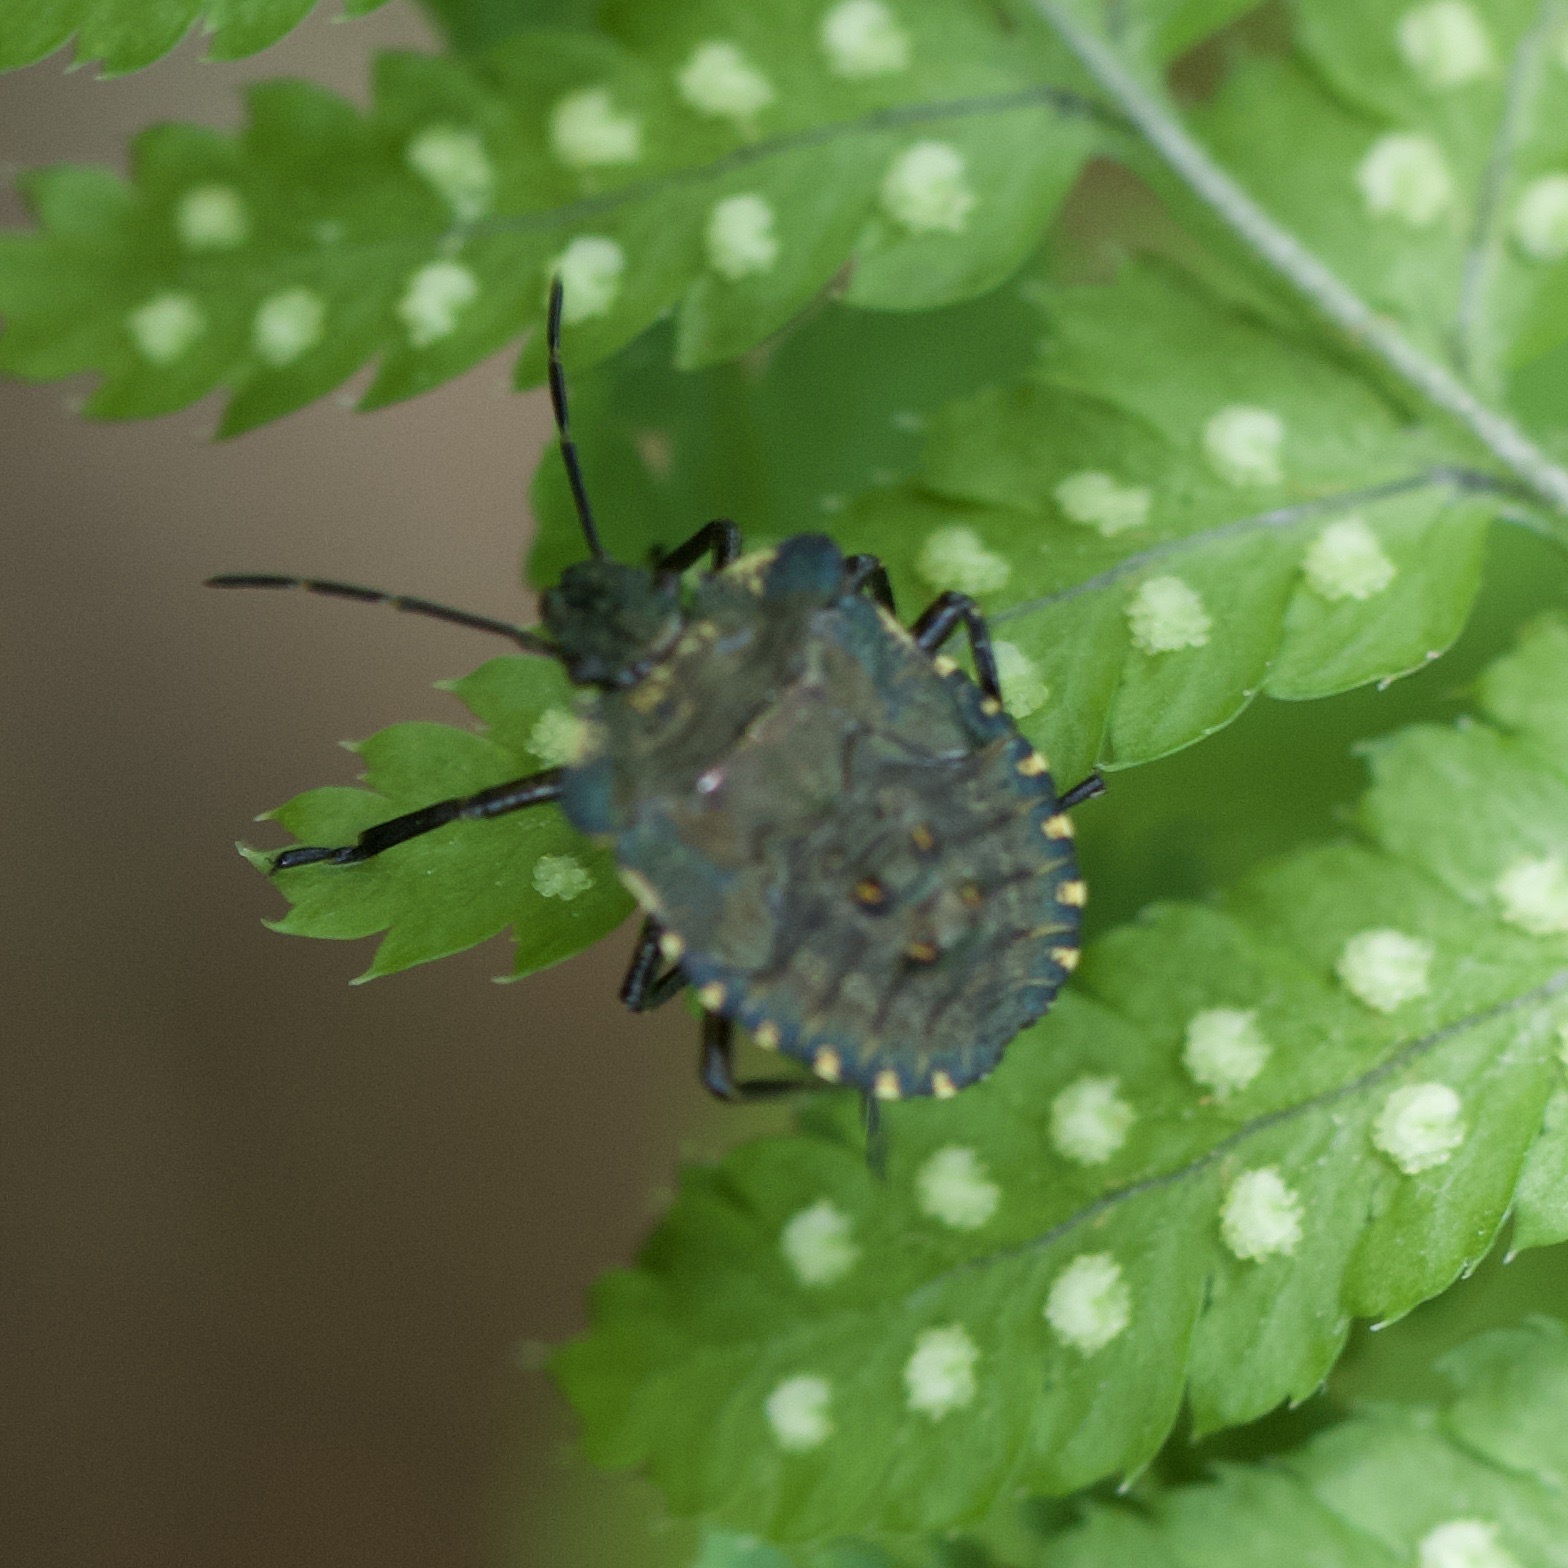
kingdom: Animalia
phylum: Arthropoda
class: Insecta
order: Hemiptera
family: Pentatomidae
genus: Pentatoma
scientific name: Pentatoma rufipes
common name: Forest bug
